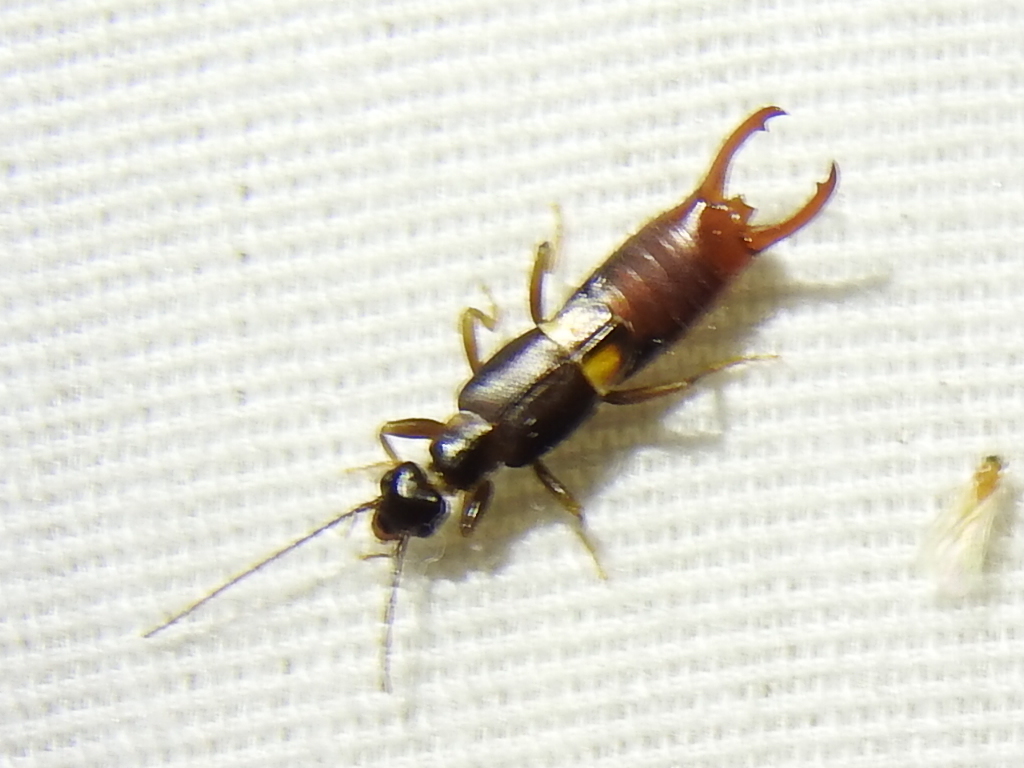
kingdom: Animalia
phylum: Arthropoda
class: Insecta
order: Dermaptera
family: Spongiphoridae
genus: Vostox
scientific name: Vostox apicedentatus
